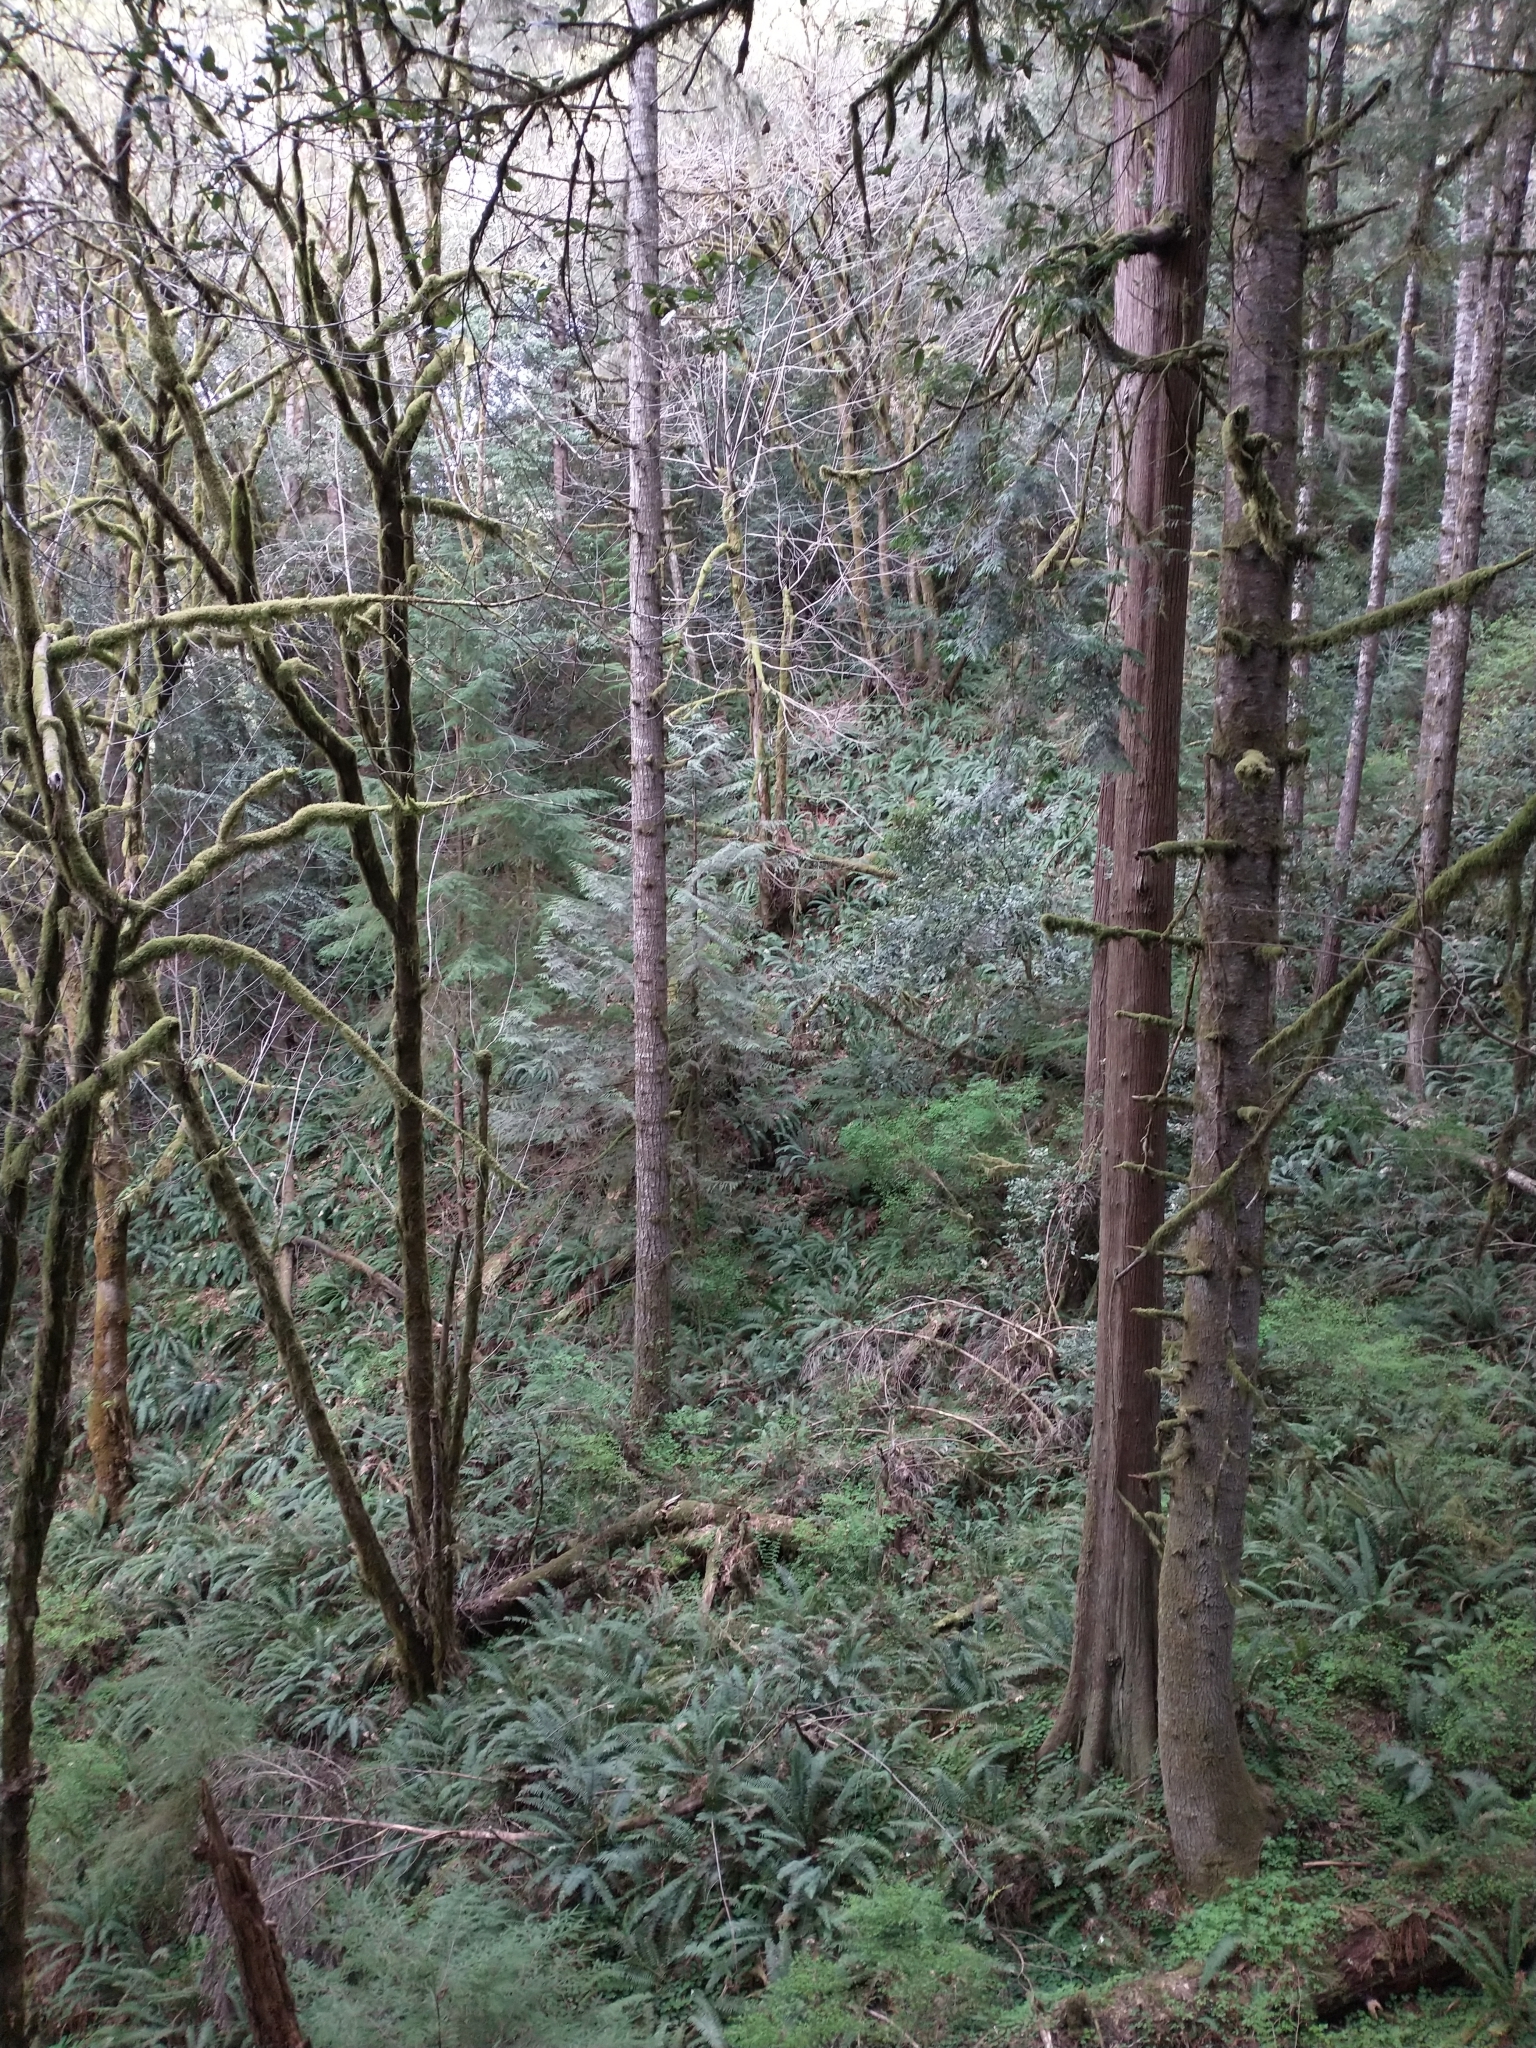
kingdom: Plantae
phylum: Tracheophyta
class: Pinopsida
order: Pinales
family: Cupressaceae
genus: Thuja
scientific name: Thuja plicata
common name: Western red-cedar
